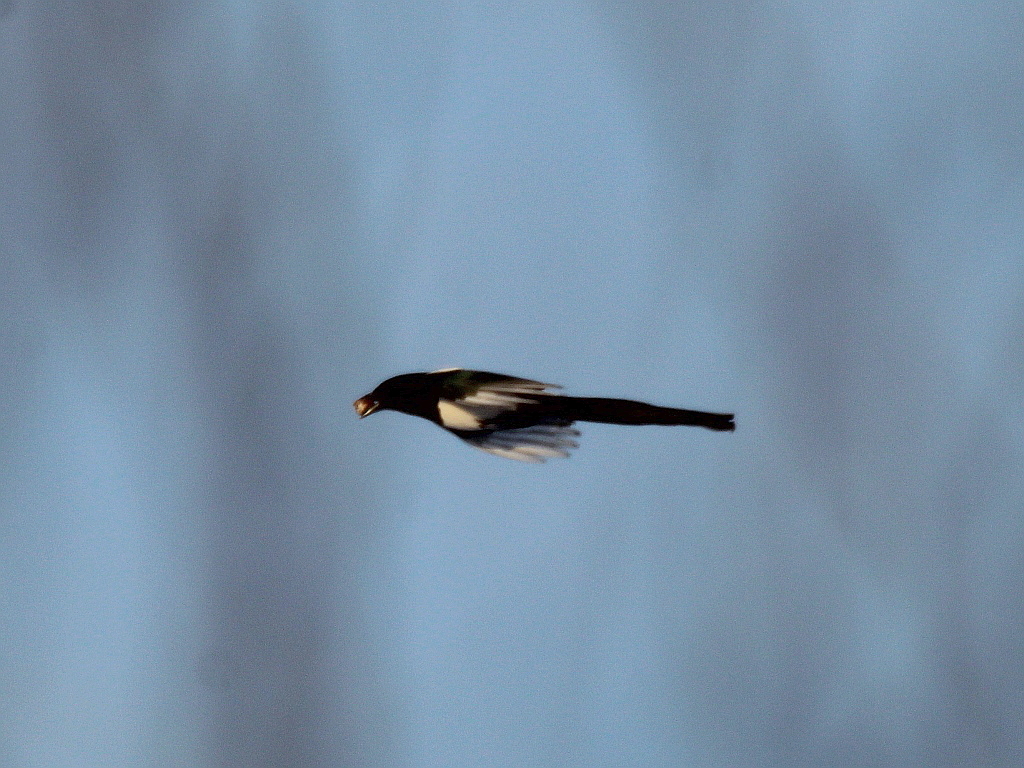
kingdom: Animalia
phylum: Chordata
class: Aves
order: Passeriformes
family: Corvidae
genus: Pica
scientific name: Pica pica
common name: Eurasian magpie
